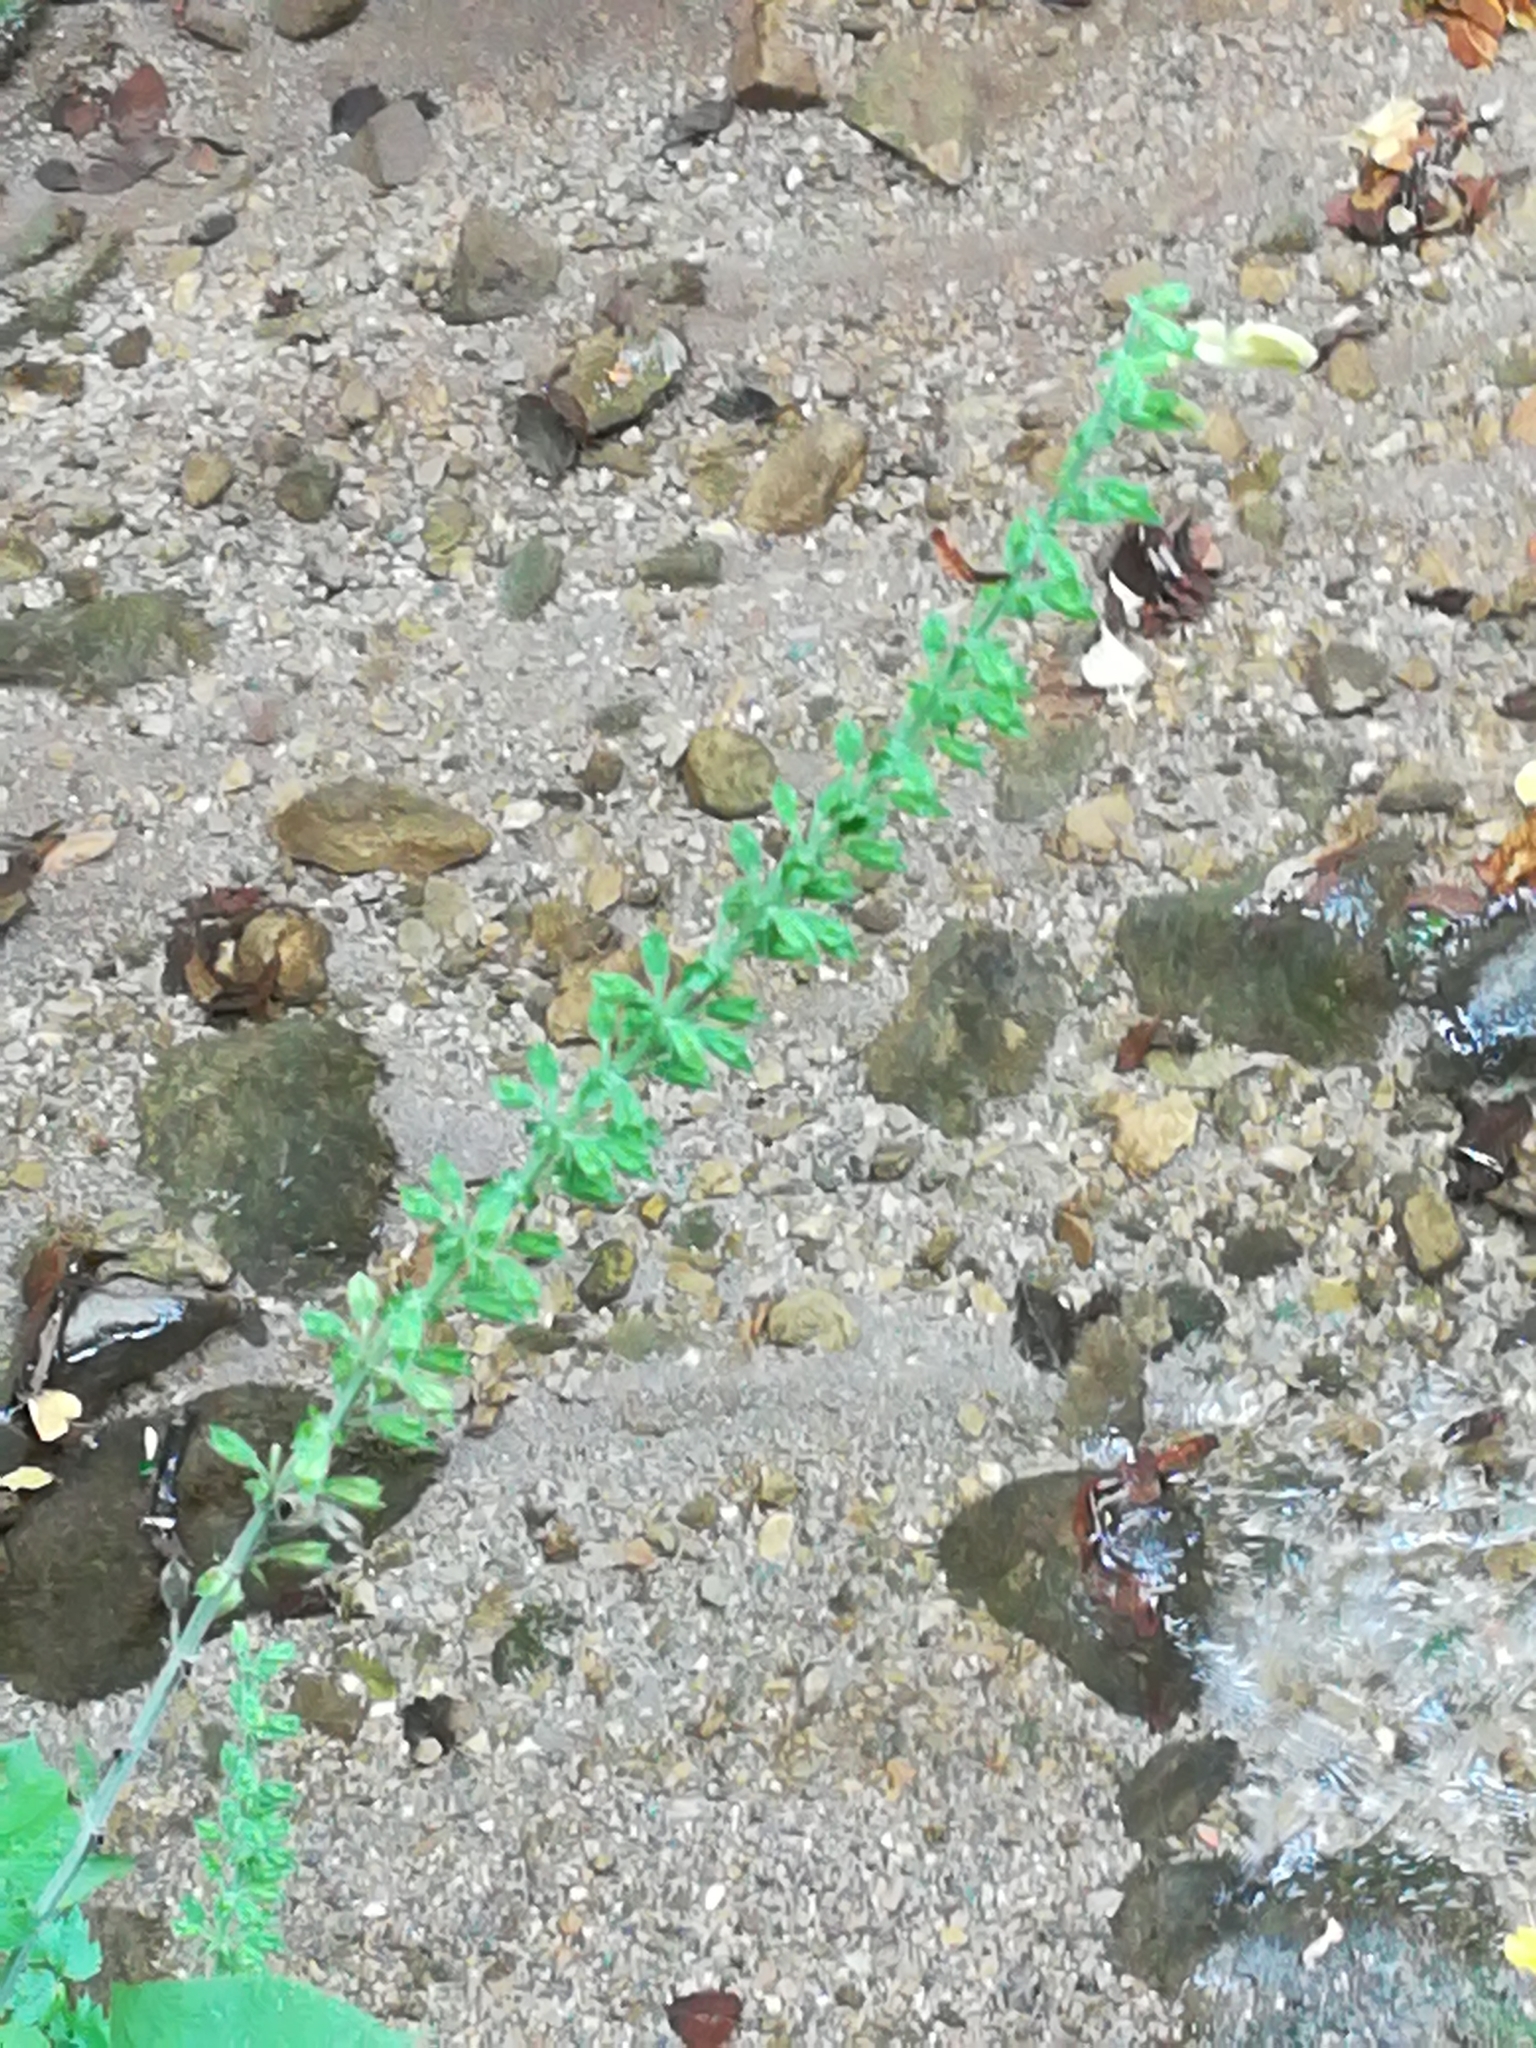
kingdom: Plantae
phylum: Tracheophyta
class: Magnoliopsida
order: Lamiales
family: Lamiaceae
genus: Salvia
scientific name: Salvia glutinosa
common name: Sticky clary
